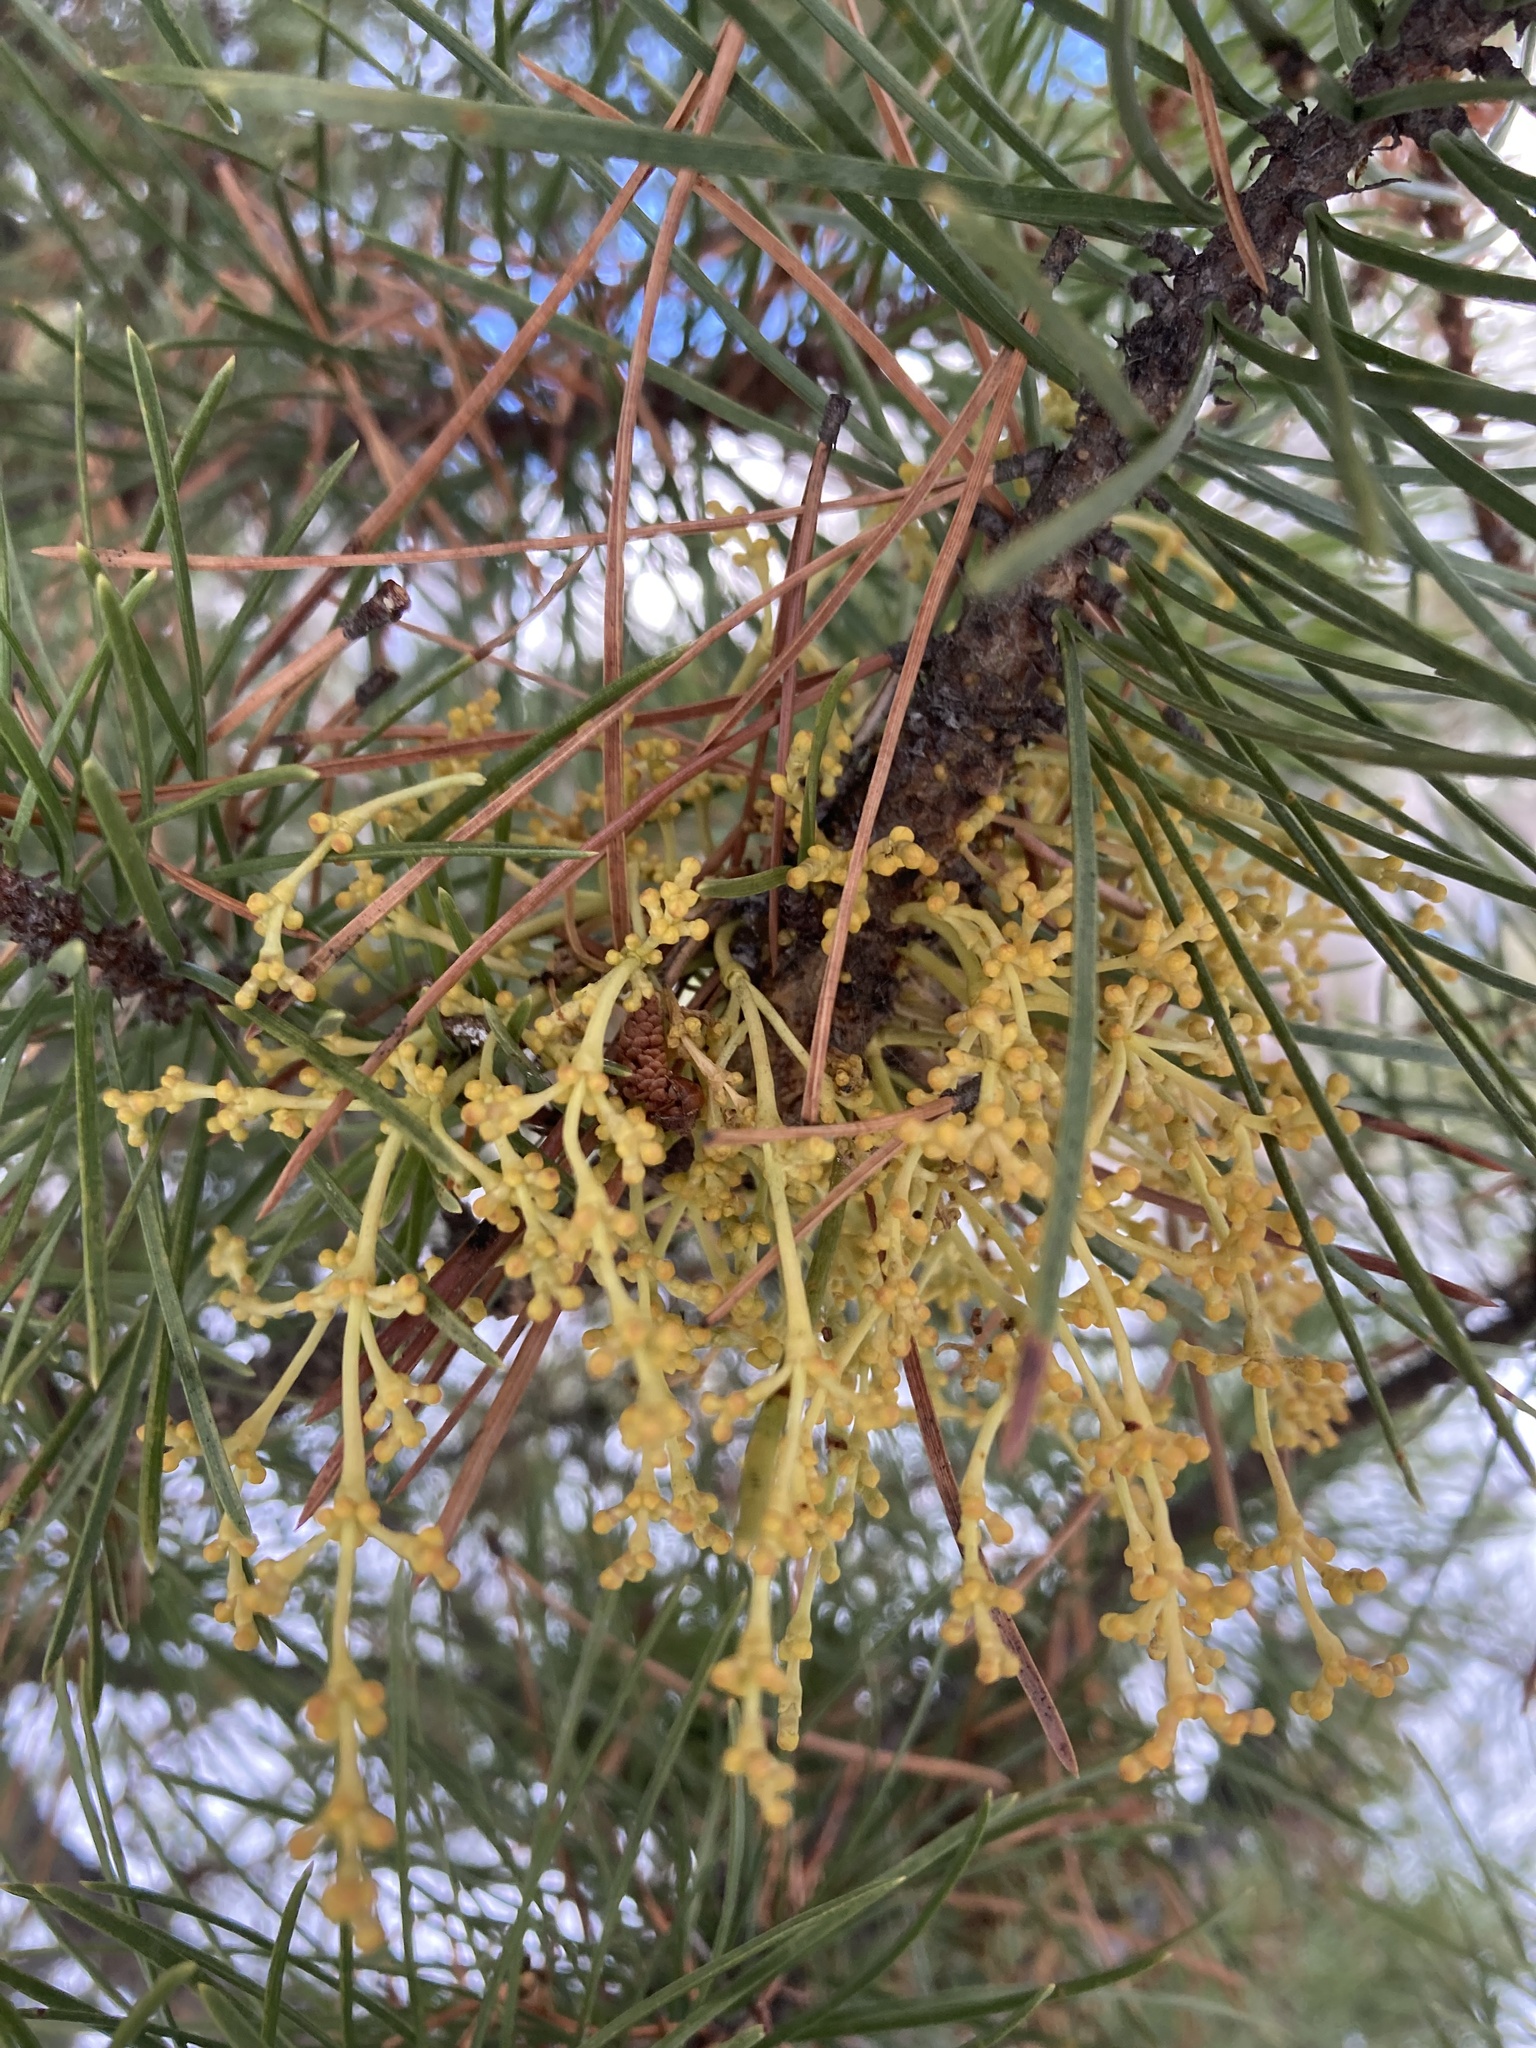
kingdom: Plantae
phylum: Tracheophyta
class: Magnoliopsida
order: Santalales
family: Viscaceae
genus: Arceuthobium
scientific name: Arceuthobium americanum
